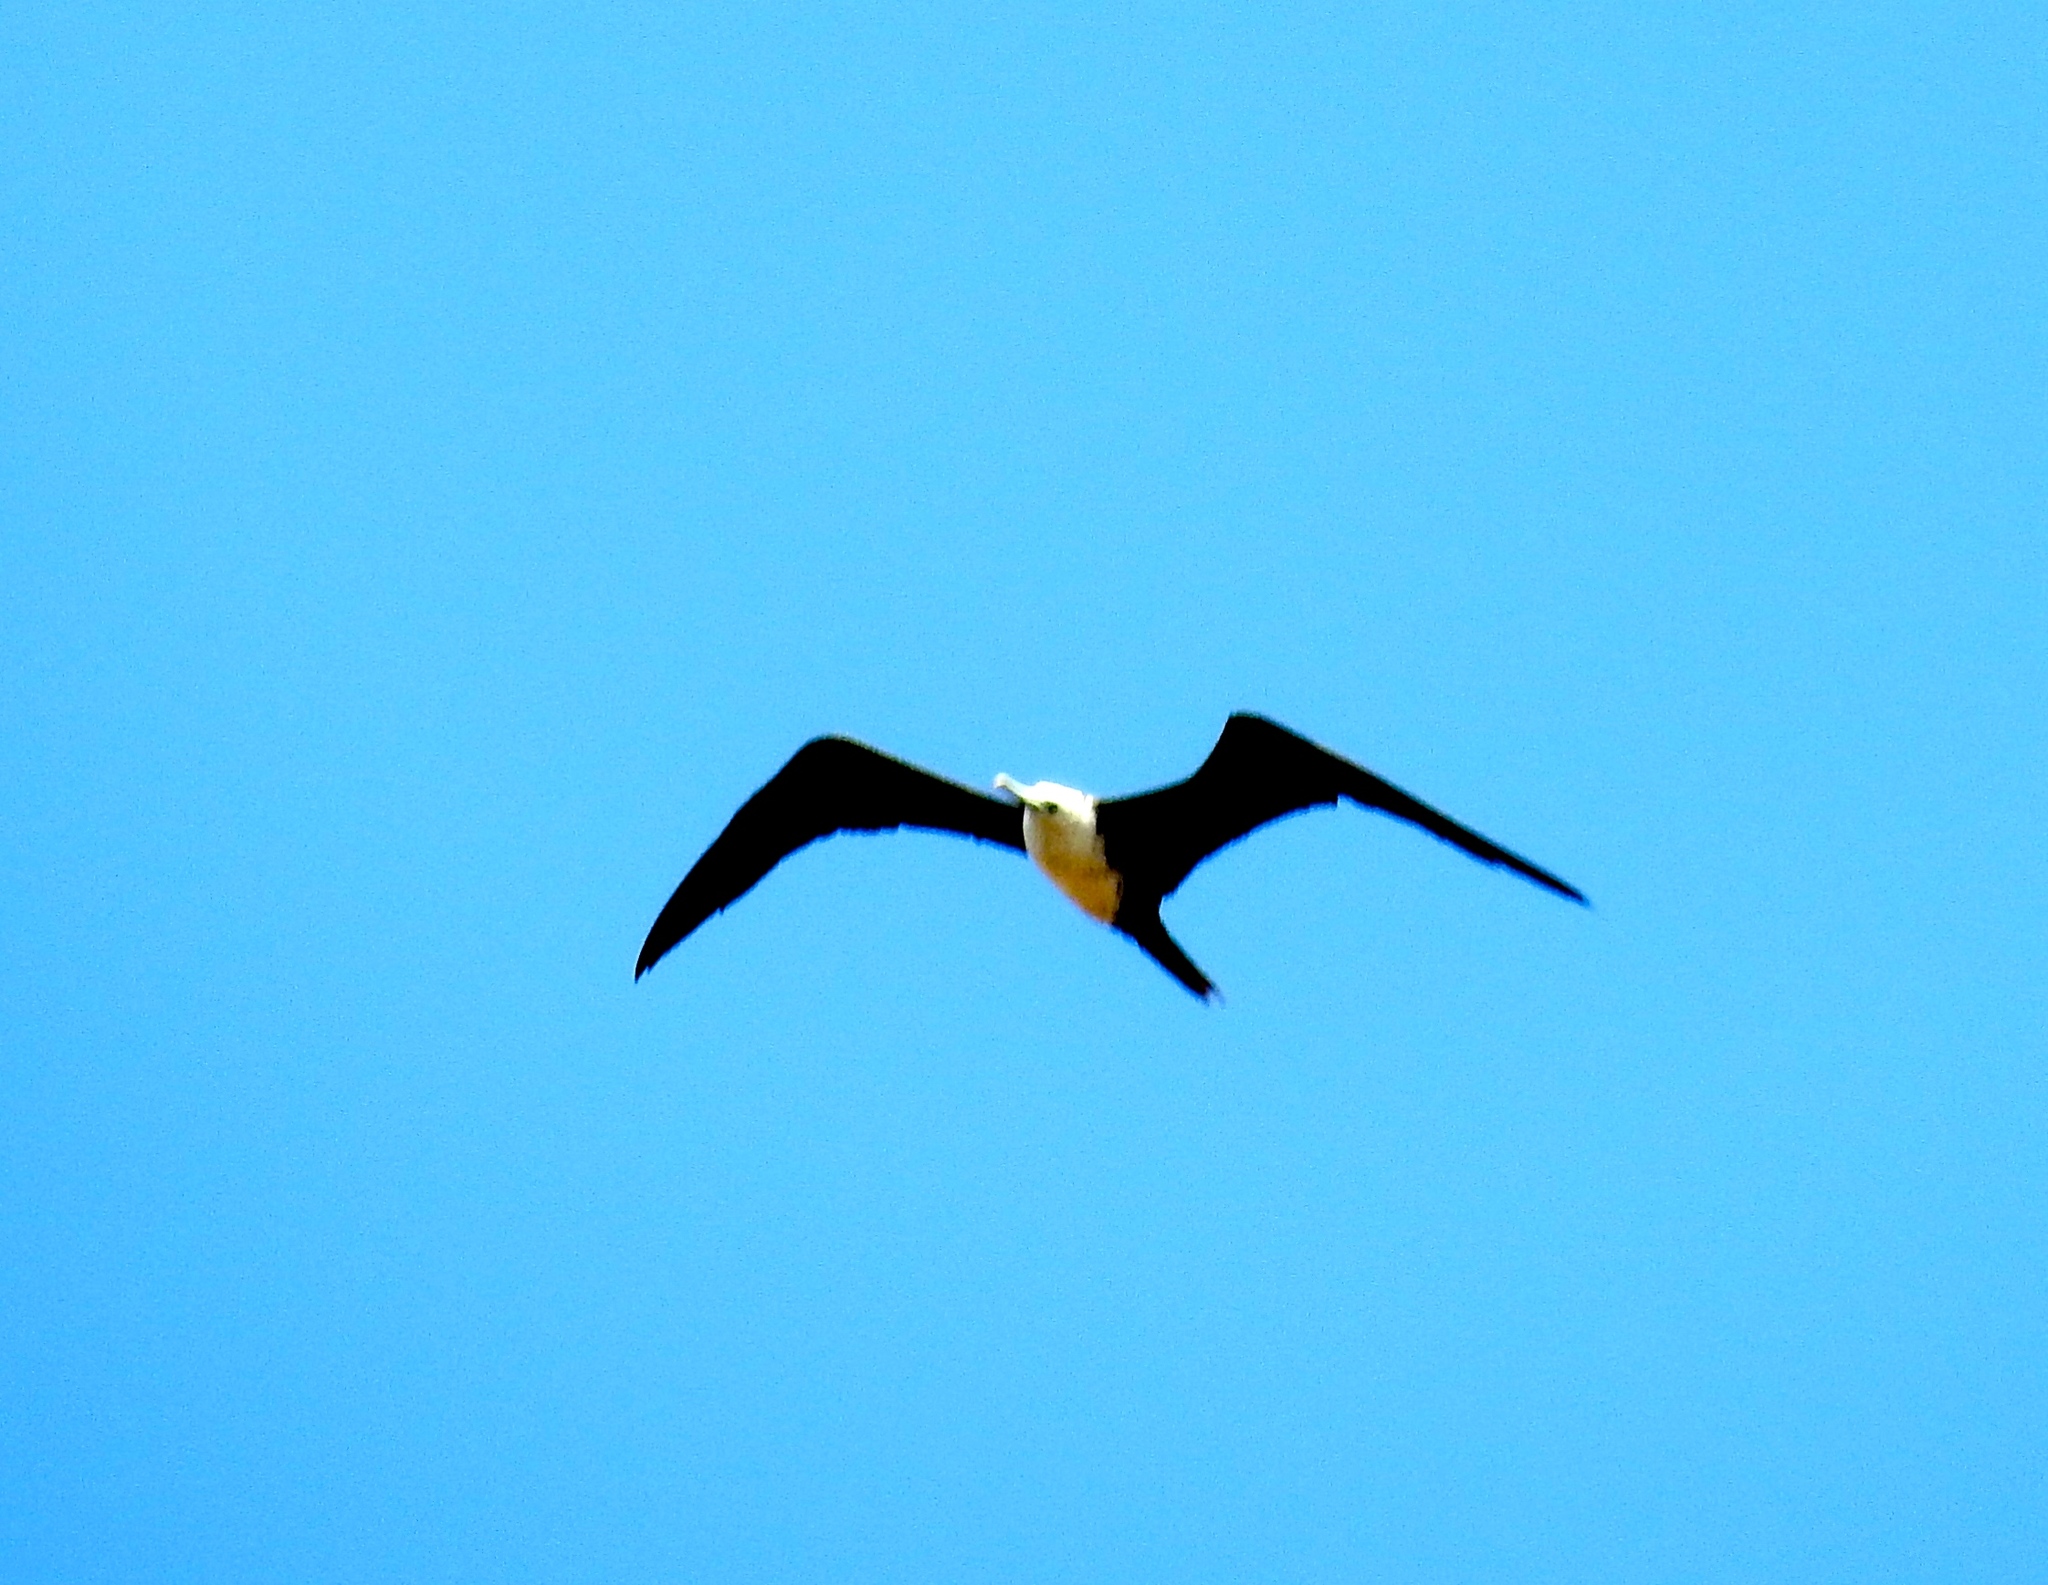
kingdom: Animalia
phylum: Chordata
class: Aves
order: Suliformes
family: Fregatidae
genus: Fregata
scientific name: Fregata magnificens
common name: Magnificent frigatebird
